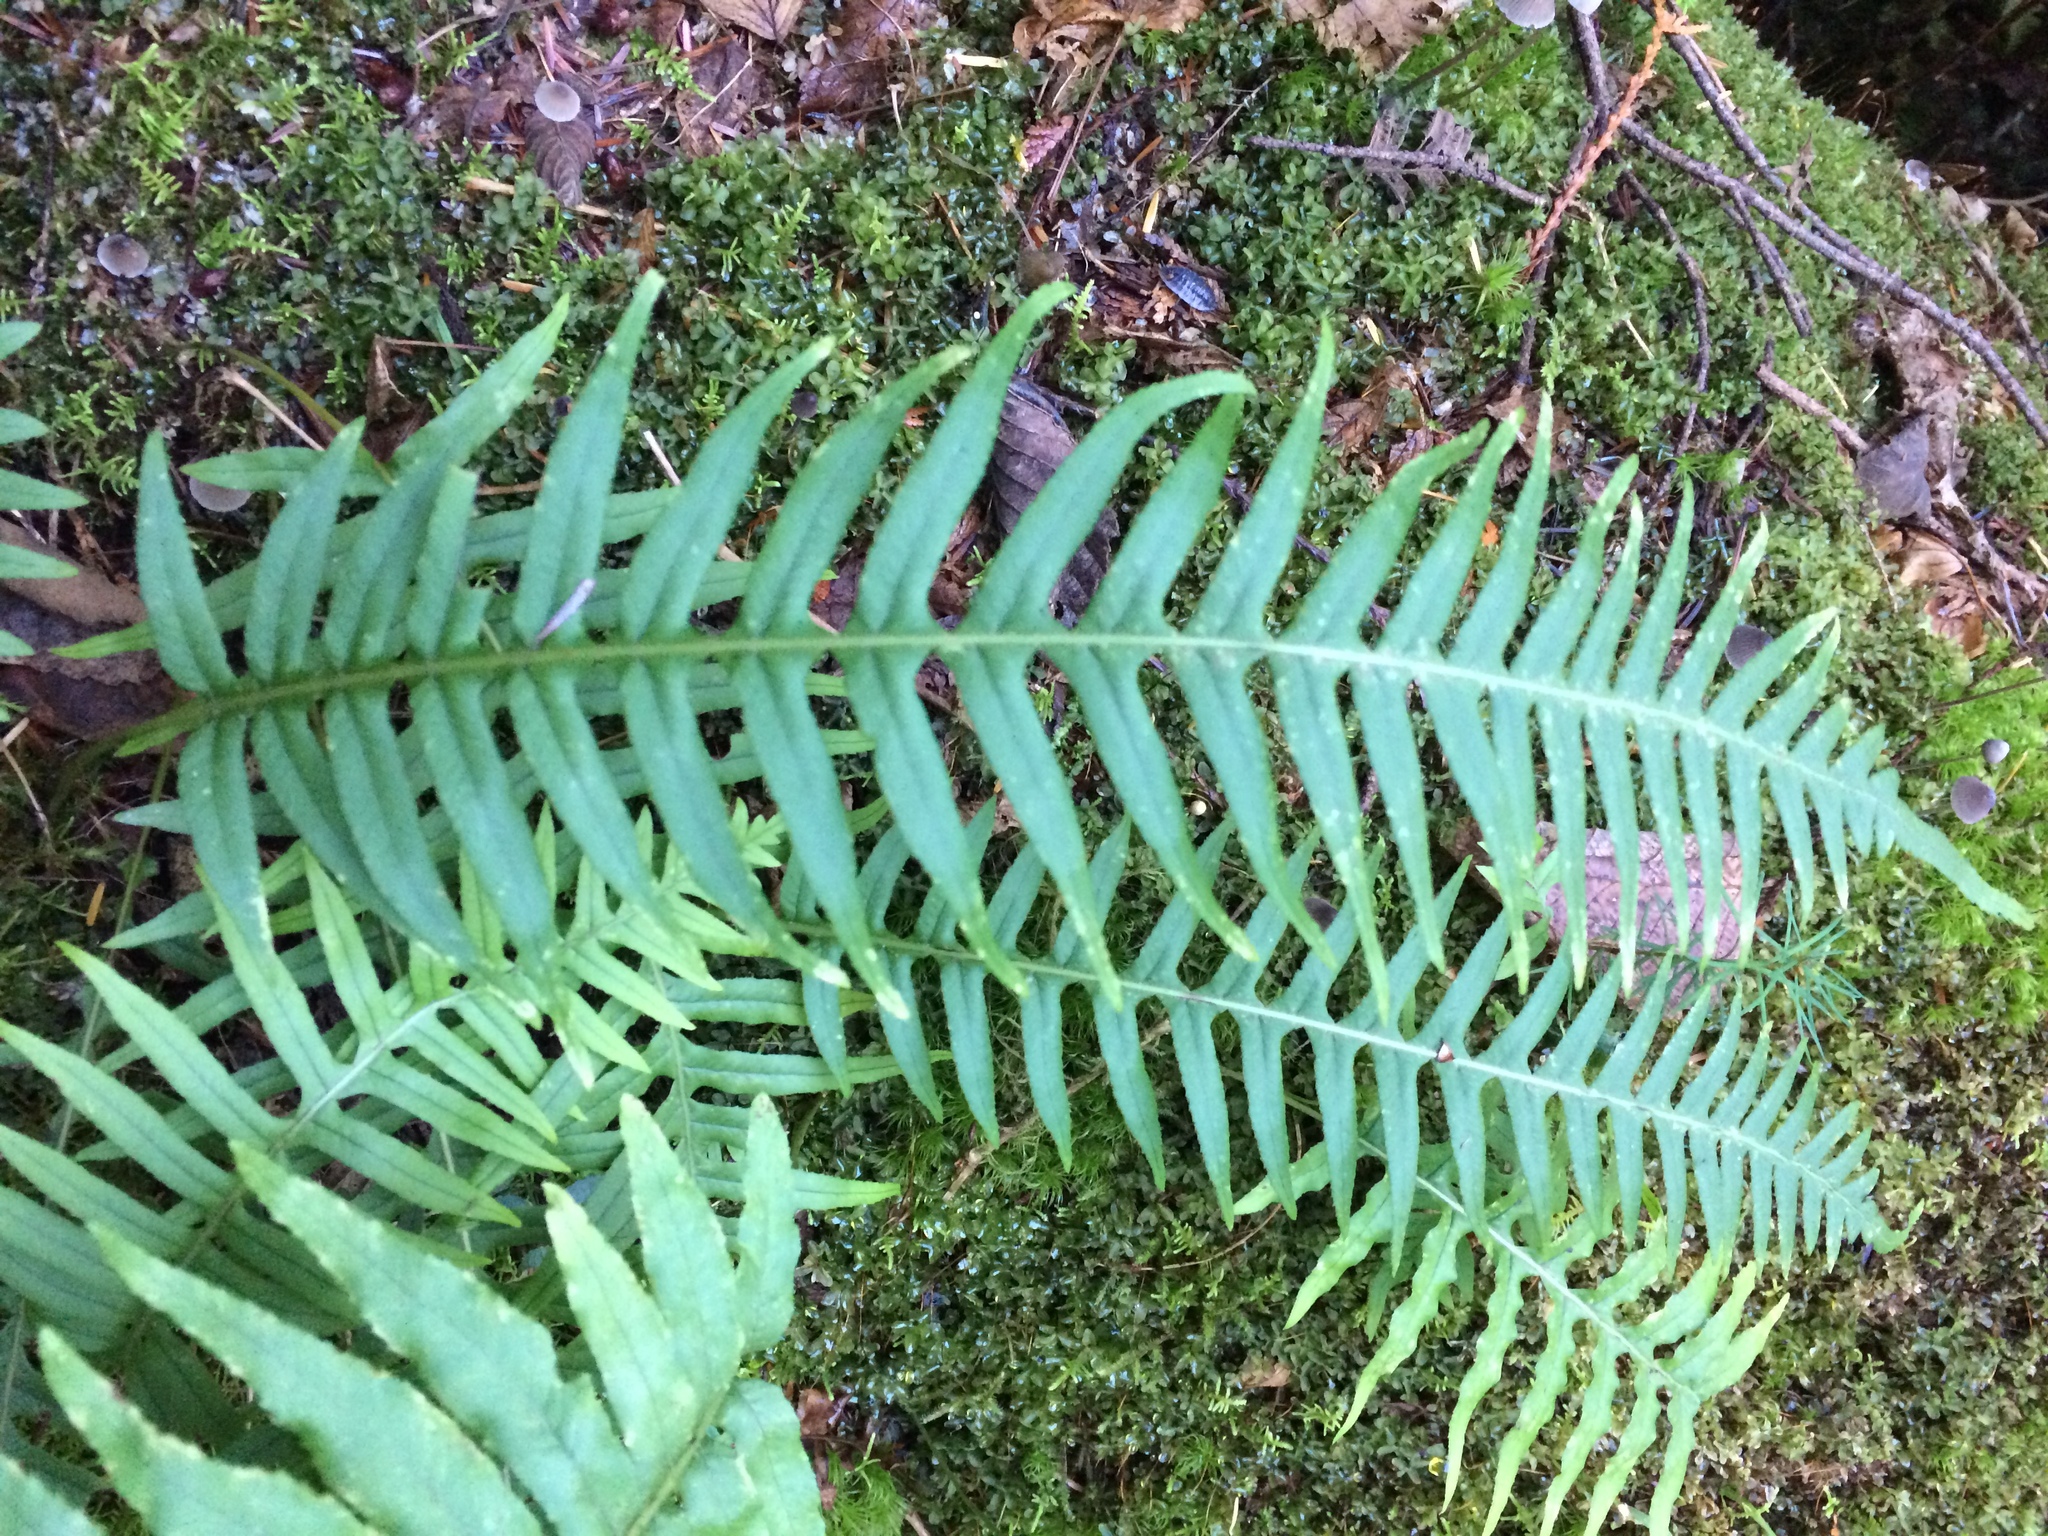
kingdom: Plantae
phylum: Tracheophyta
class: Polypodiopsida
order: Polypodiales
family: Polypodiaceae
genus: Polypodium
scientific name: Polypodium glycyrrhiza
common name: Licorice fern
